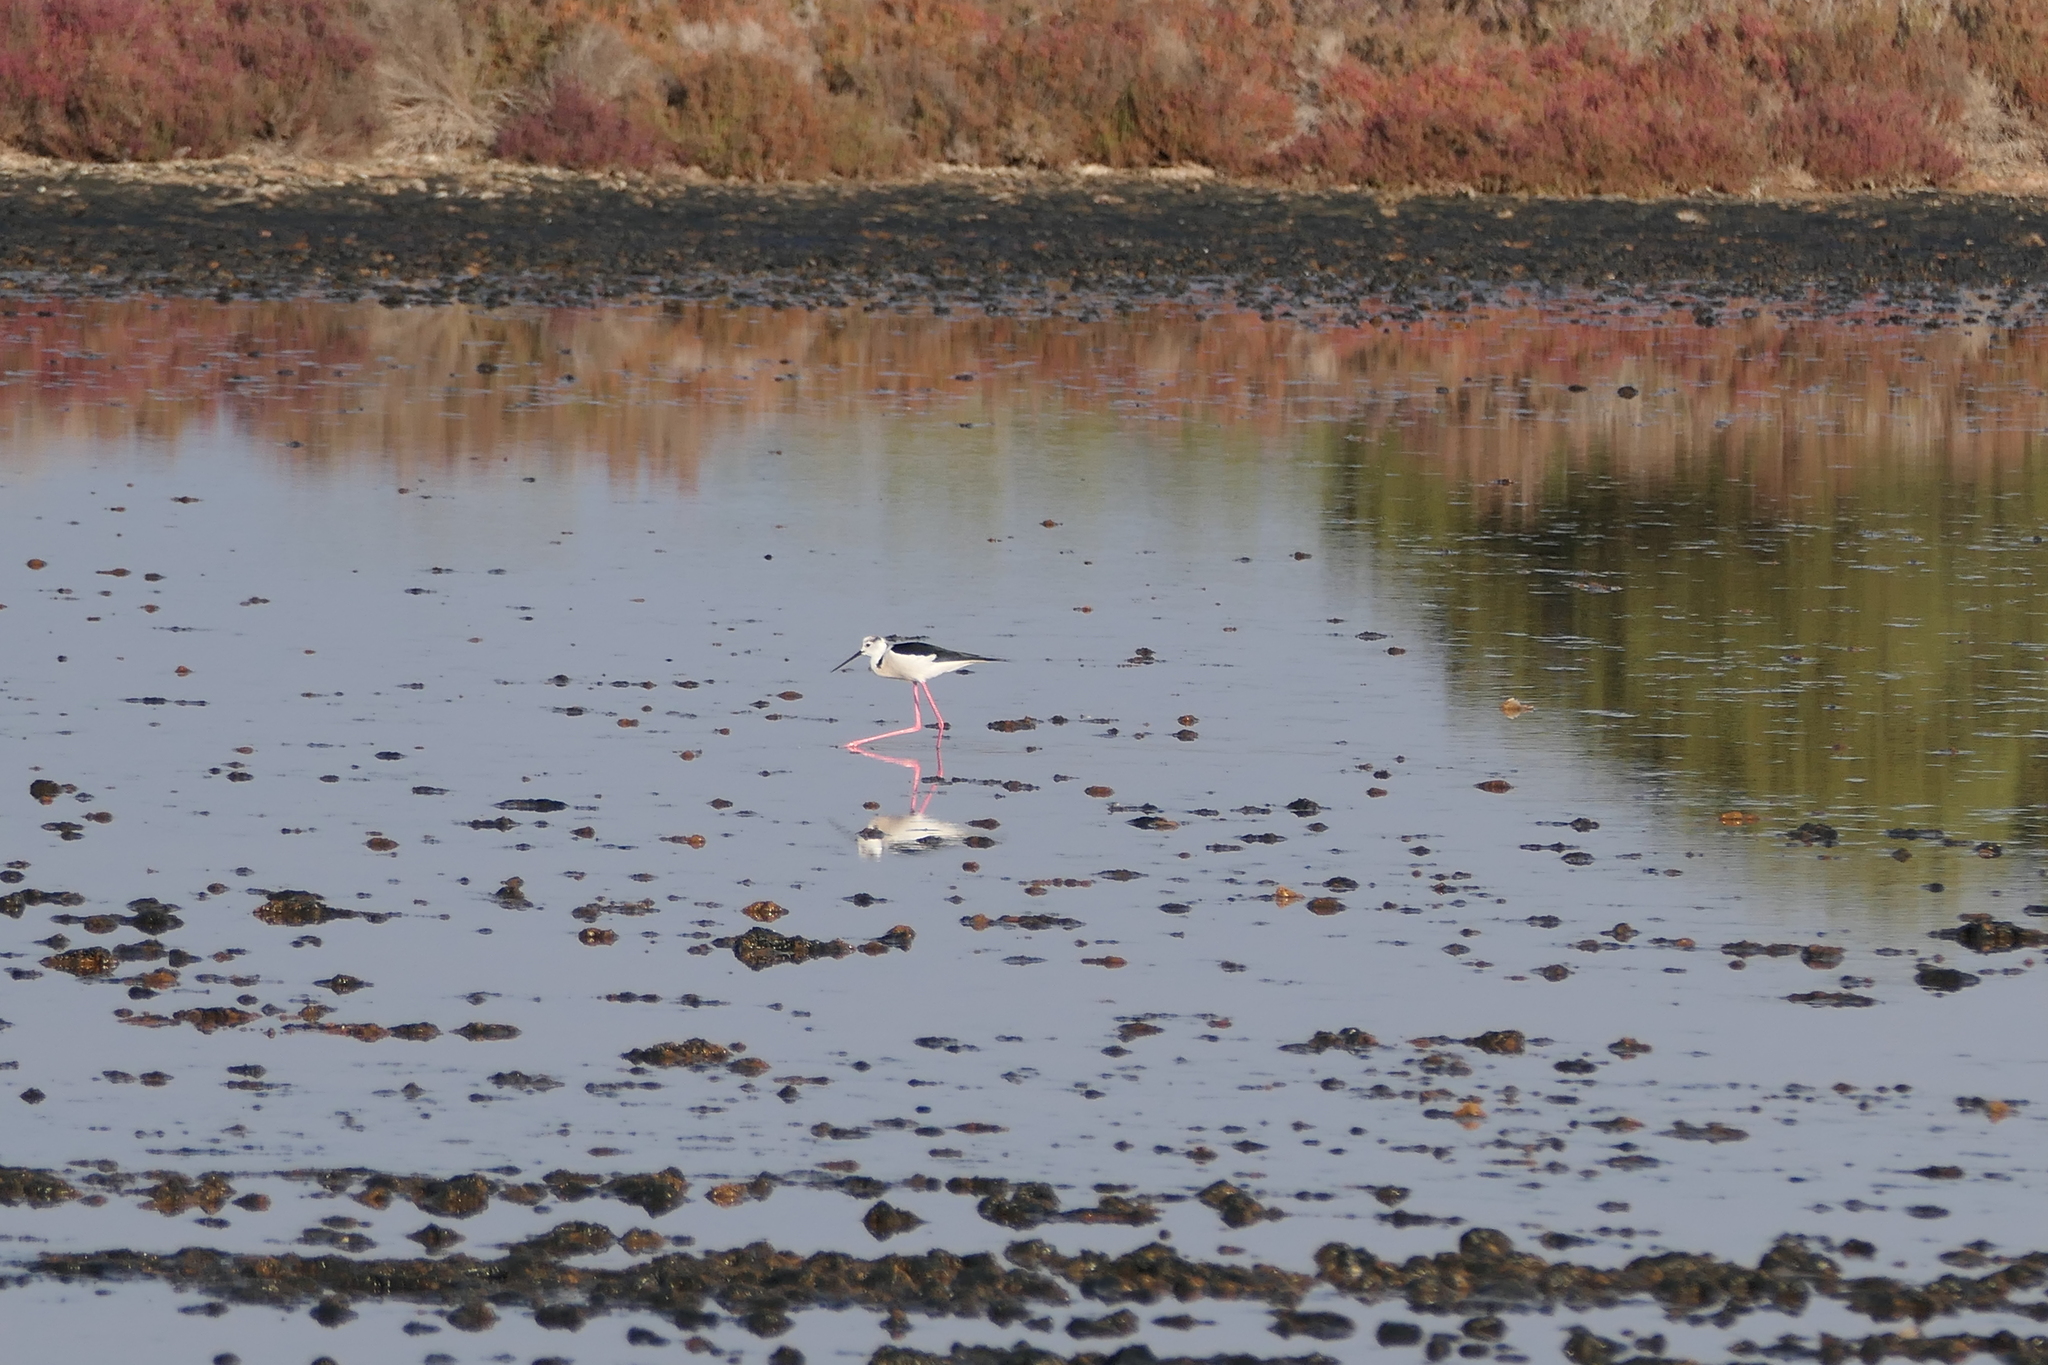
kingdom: Animalia
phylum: Chordata
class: Aves
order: Charadriiformes
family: Recurvirostridae
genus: Himantopus
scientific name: Himantopus himantopus
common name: Black-winged stilt
